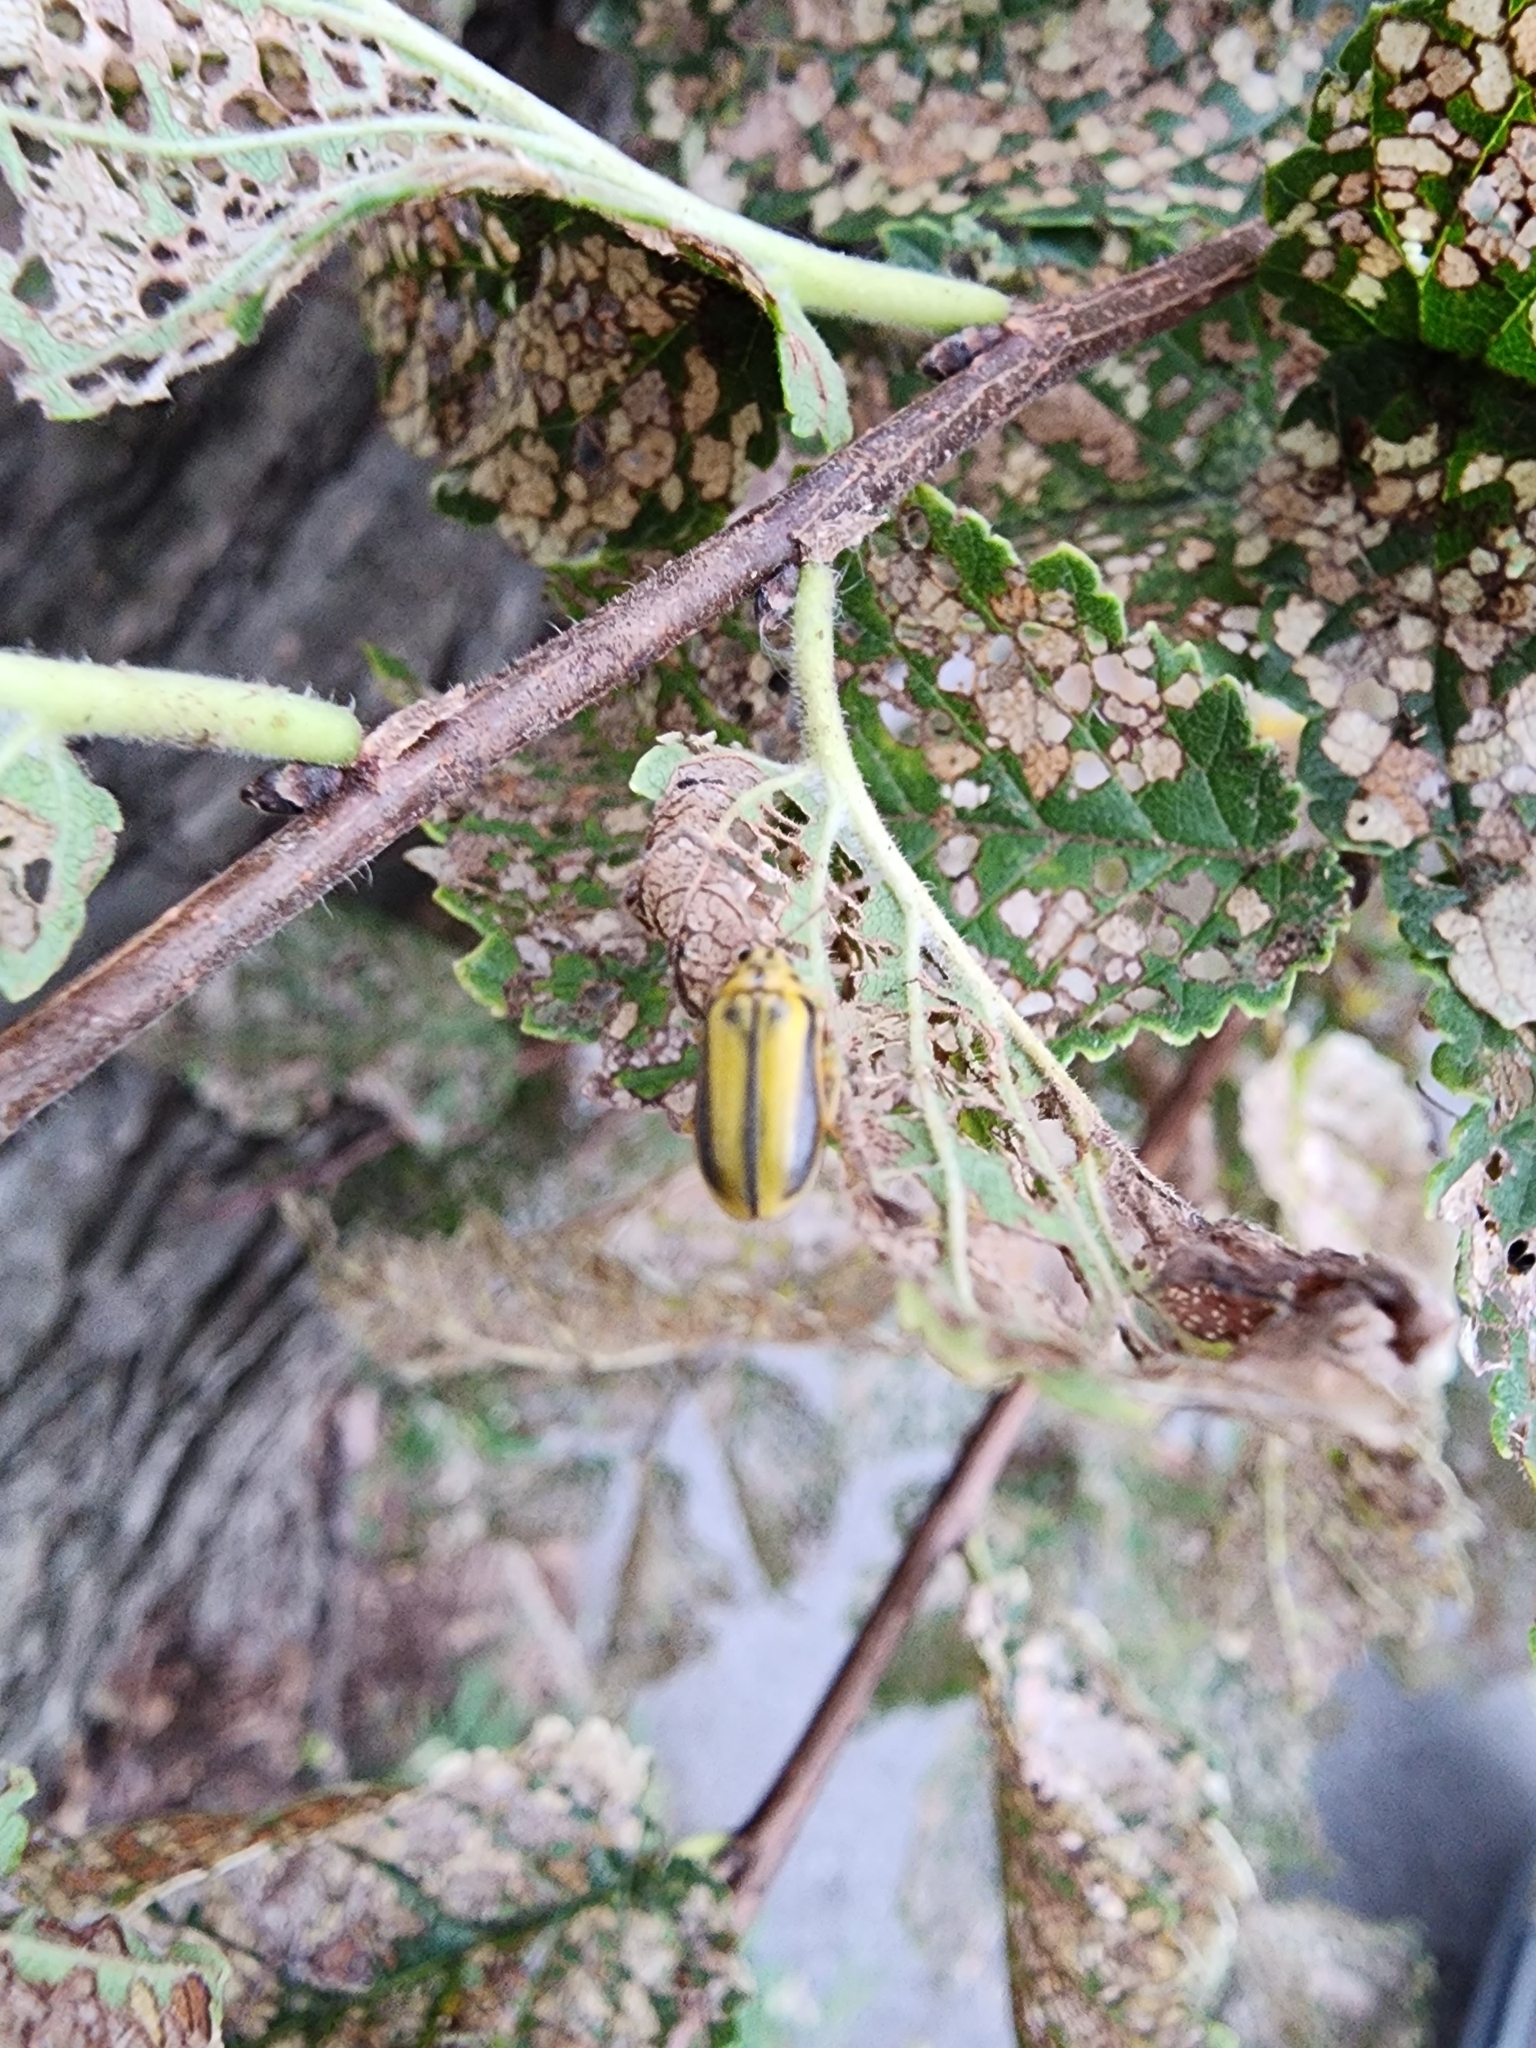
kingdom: Animalia
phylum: Arthropoda
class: Insecta
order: Coleoptera
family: Chrysomelidae
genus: Xanthogaleruca
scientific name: Xanthogaleruca luteola
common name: Elm leaf beetle
